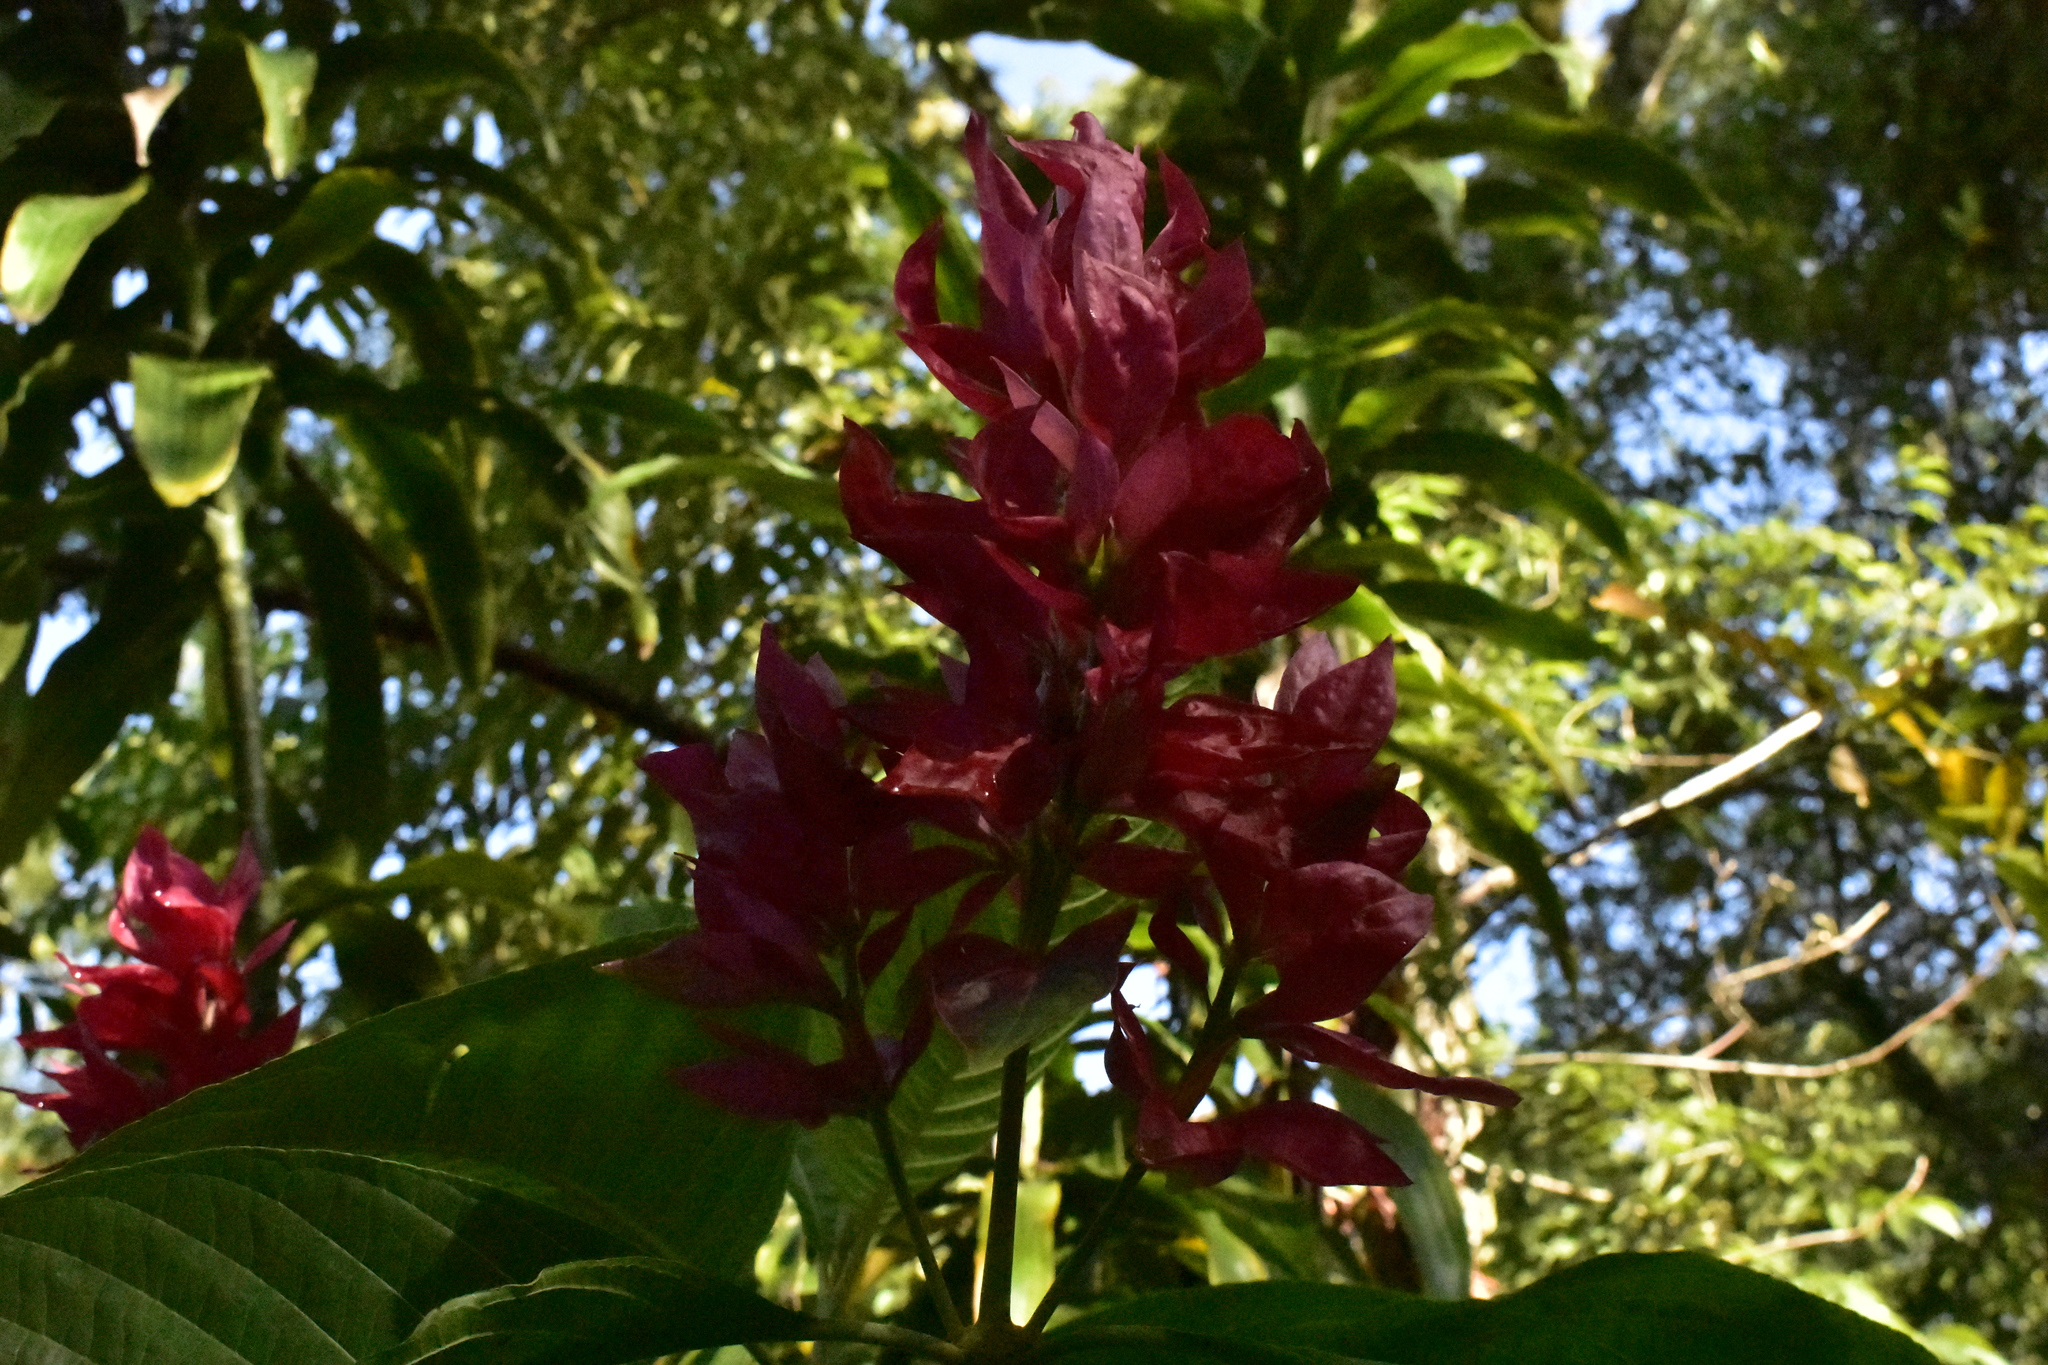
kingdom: Plantae
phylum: Tracheophyta
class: Magnoliopsida
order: Lamiales
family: Acanthaceae
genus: Megaskepasma
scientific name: Megaskepasma erythrochlamys
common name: Brazilian red-cloak
